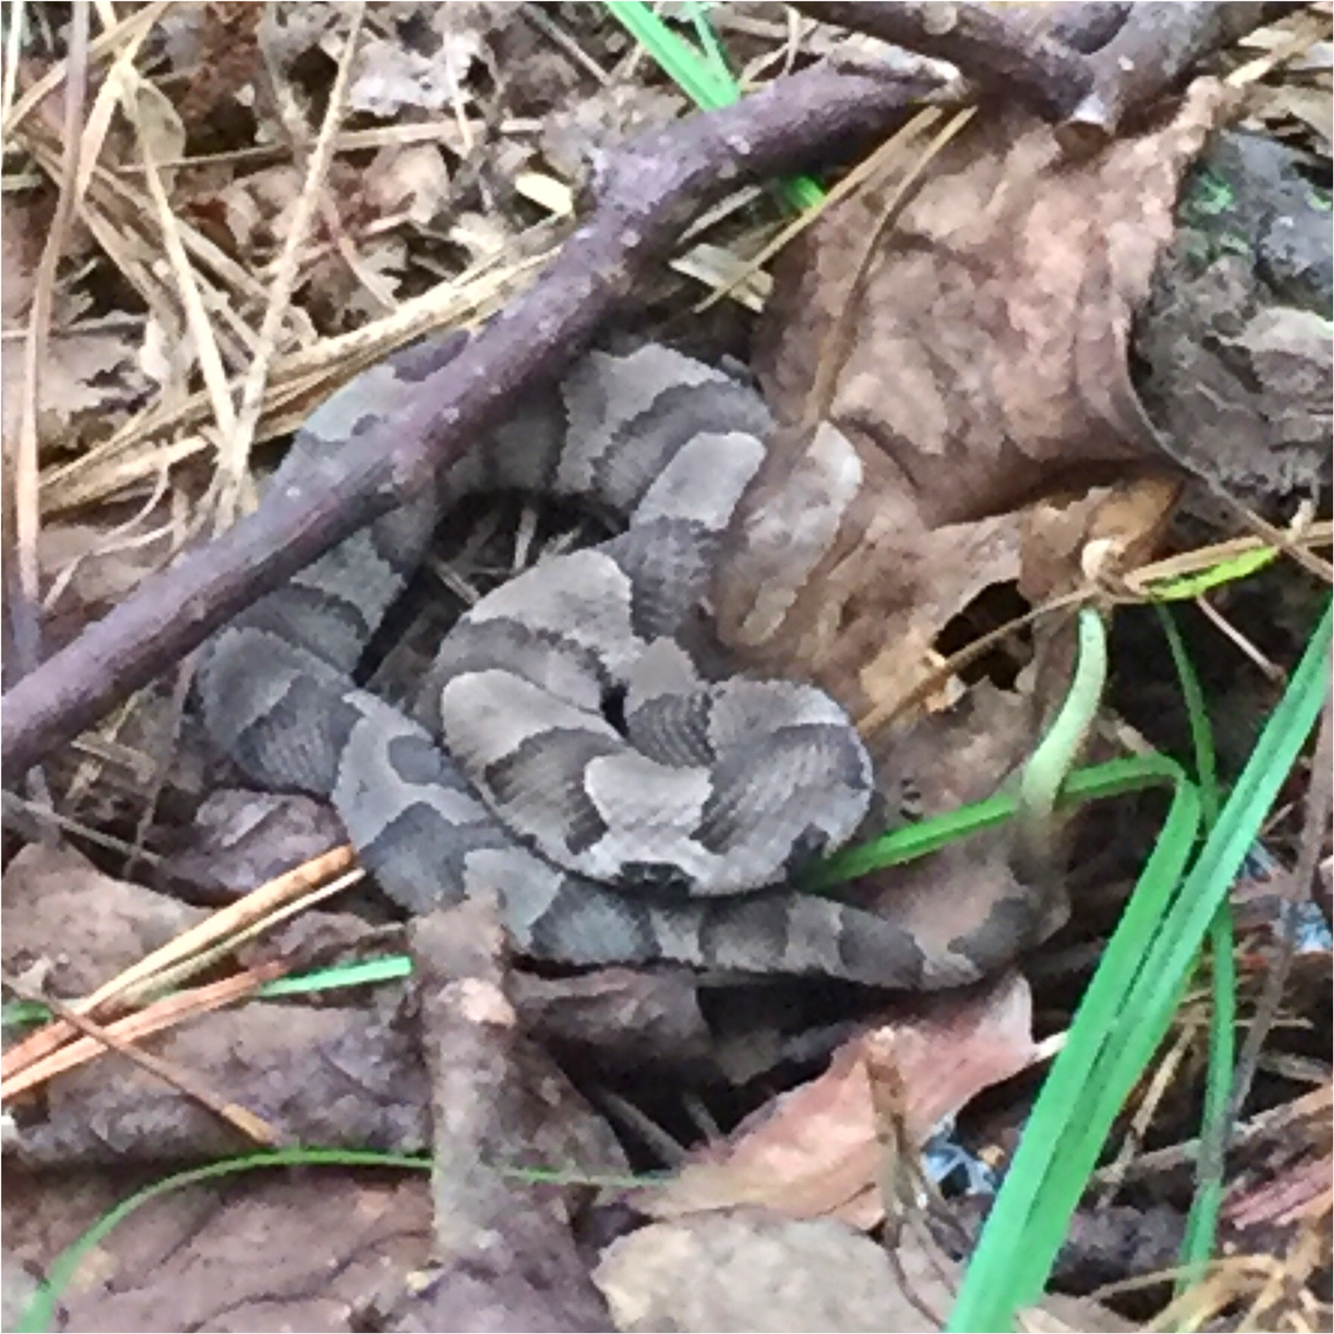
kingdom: Animalia
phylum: Chordata
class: Squamata
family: Viperidae
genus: Agkistrodon
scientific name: Agkistrodon contortrix
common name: Northern copperhead
